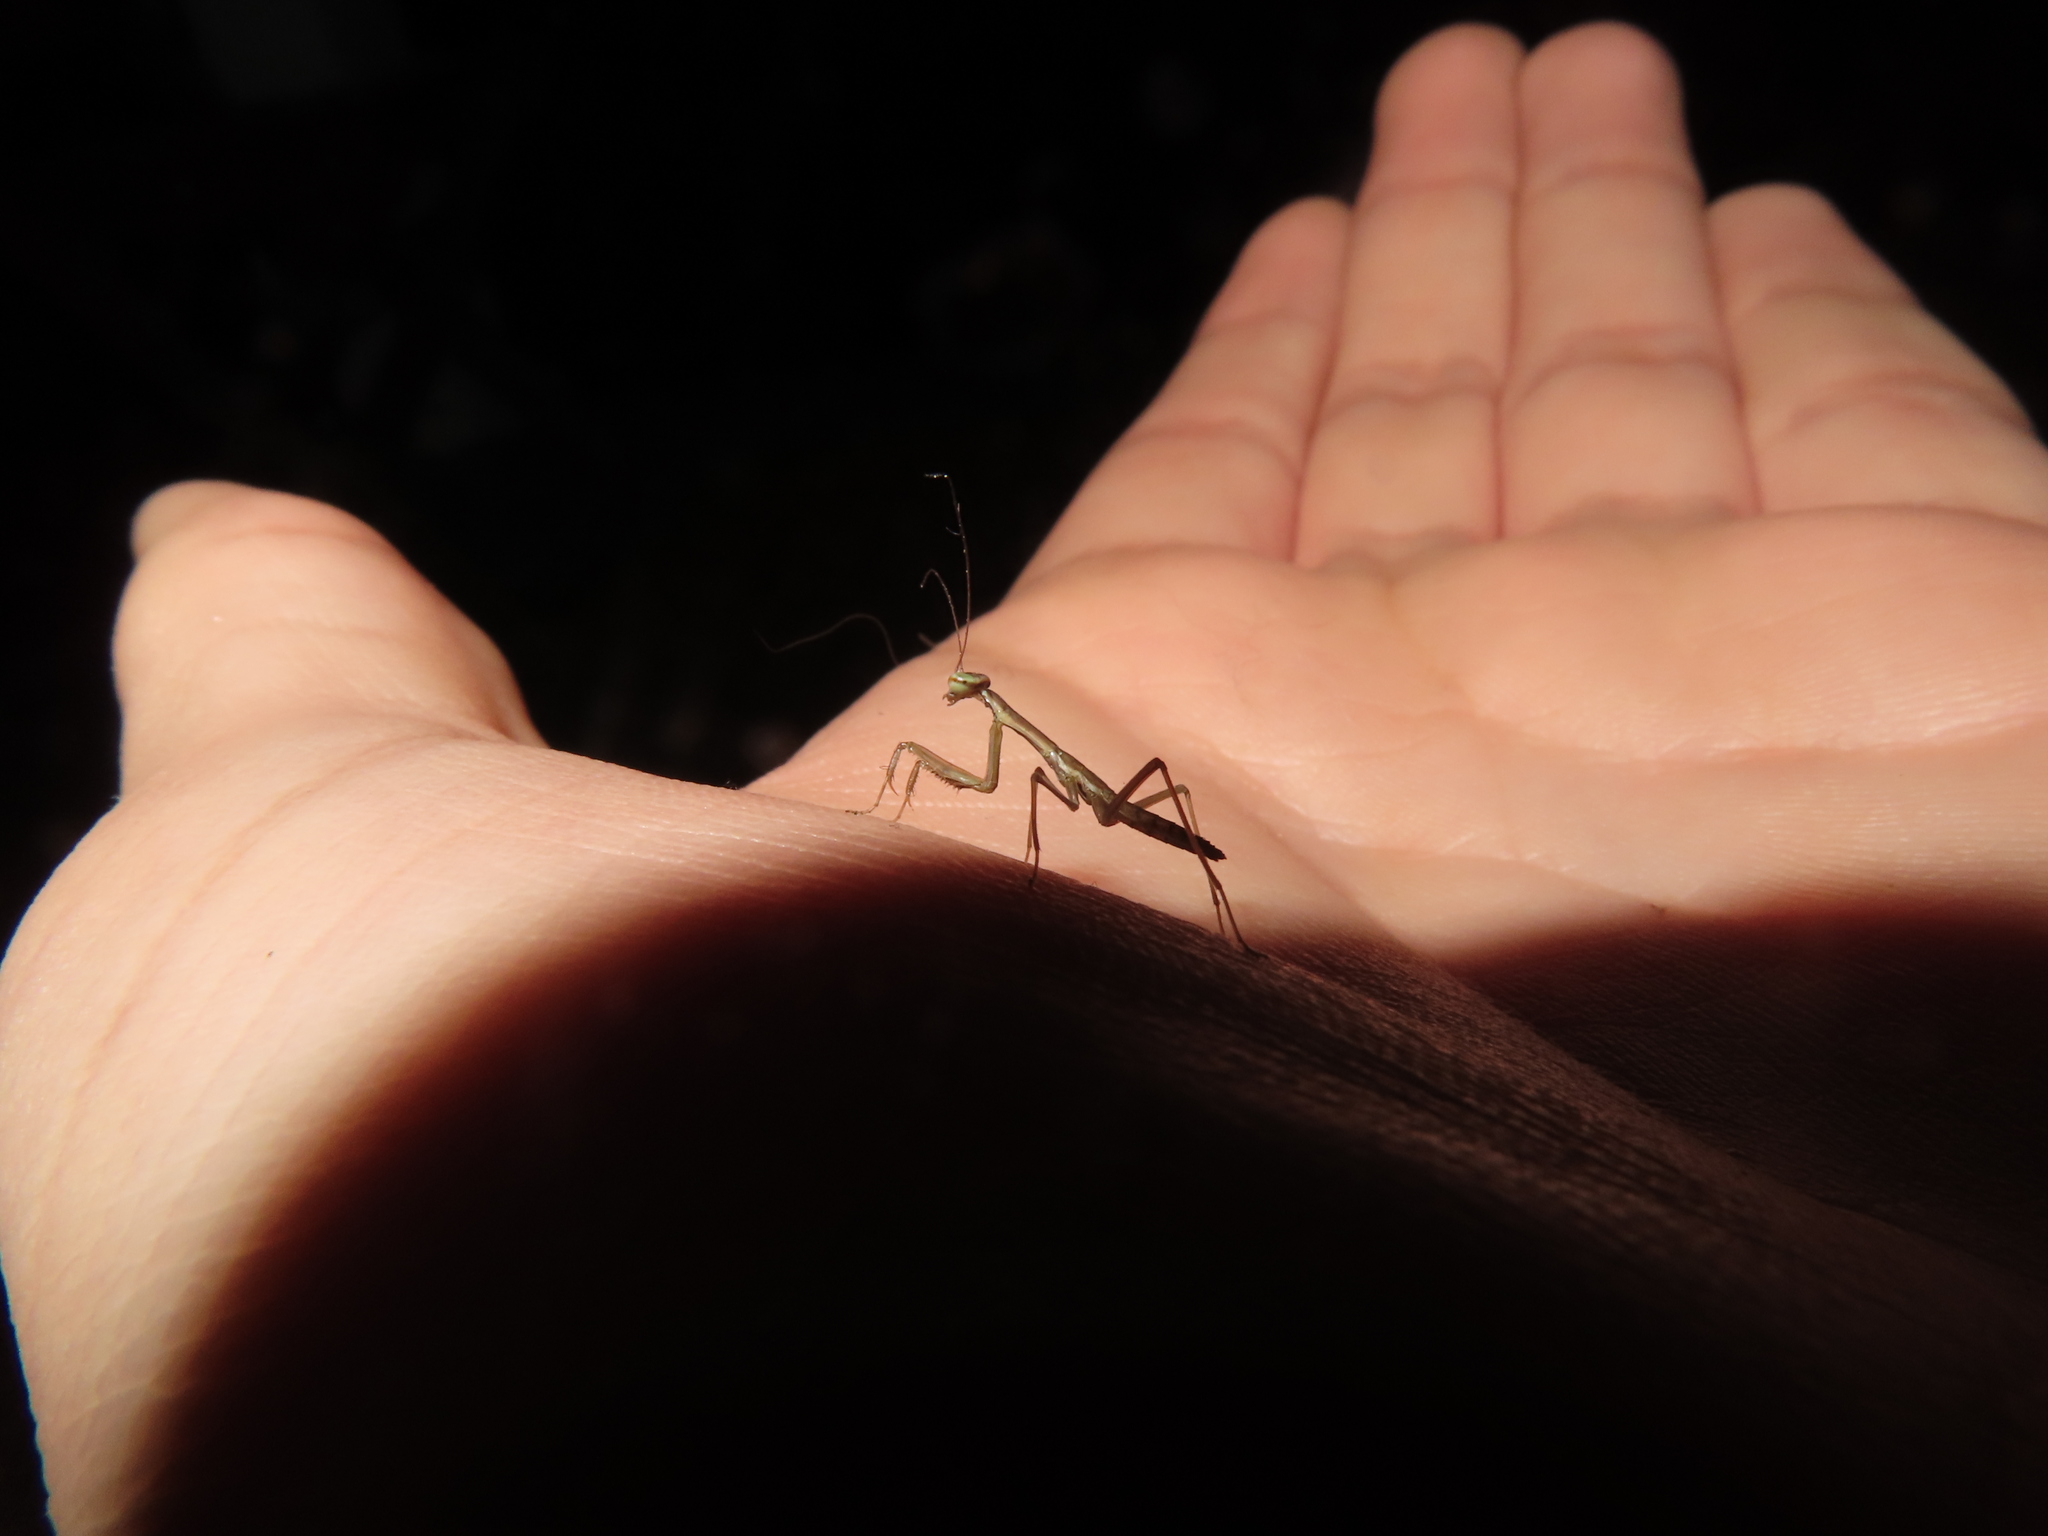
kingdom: Animalia
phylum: Arthropoda
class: Insecta
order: Mantodea
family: Mantidae
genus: Tenodera
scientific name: Tenodera sinensis
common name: Chinese mantis
